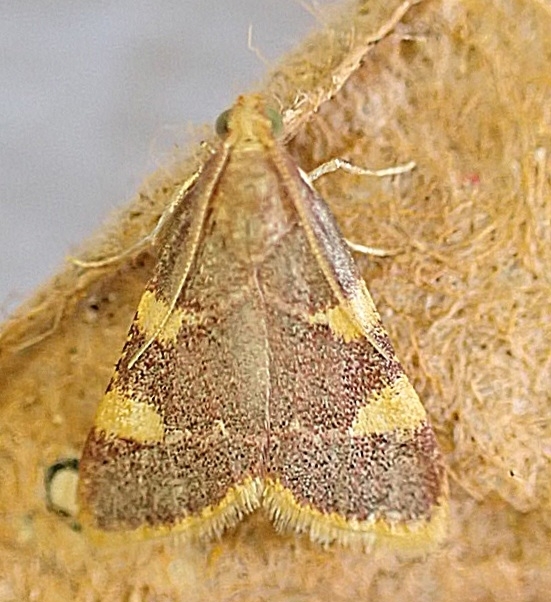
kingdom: Animalia
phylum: Arthropoda
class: Insecta
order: Lepidoptera
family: Pyralidae
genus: Hypsopygia
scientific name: Hypsopygia costalis
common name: Gold triangle
